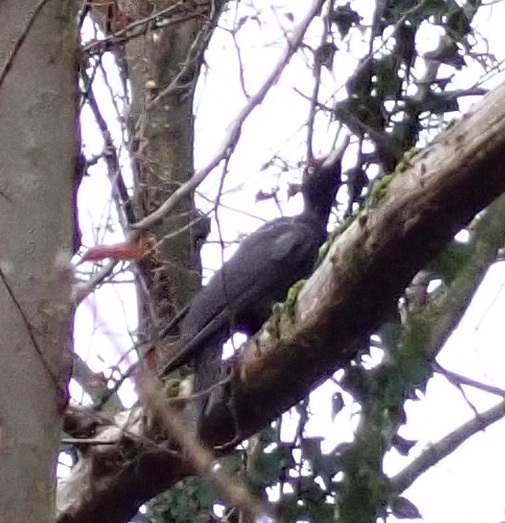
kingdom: Animalia
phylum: Chordata
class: Aves
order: Piciformes
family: Picidae
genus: Dryocopus
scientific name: Dryocopus martius
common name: Black woodpecker
